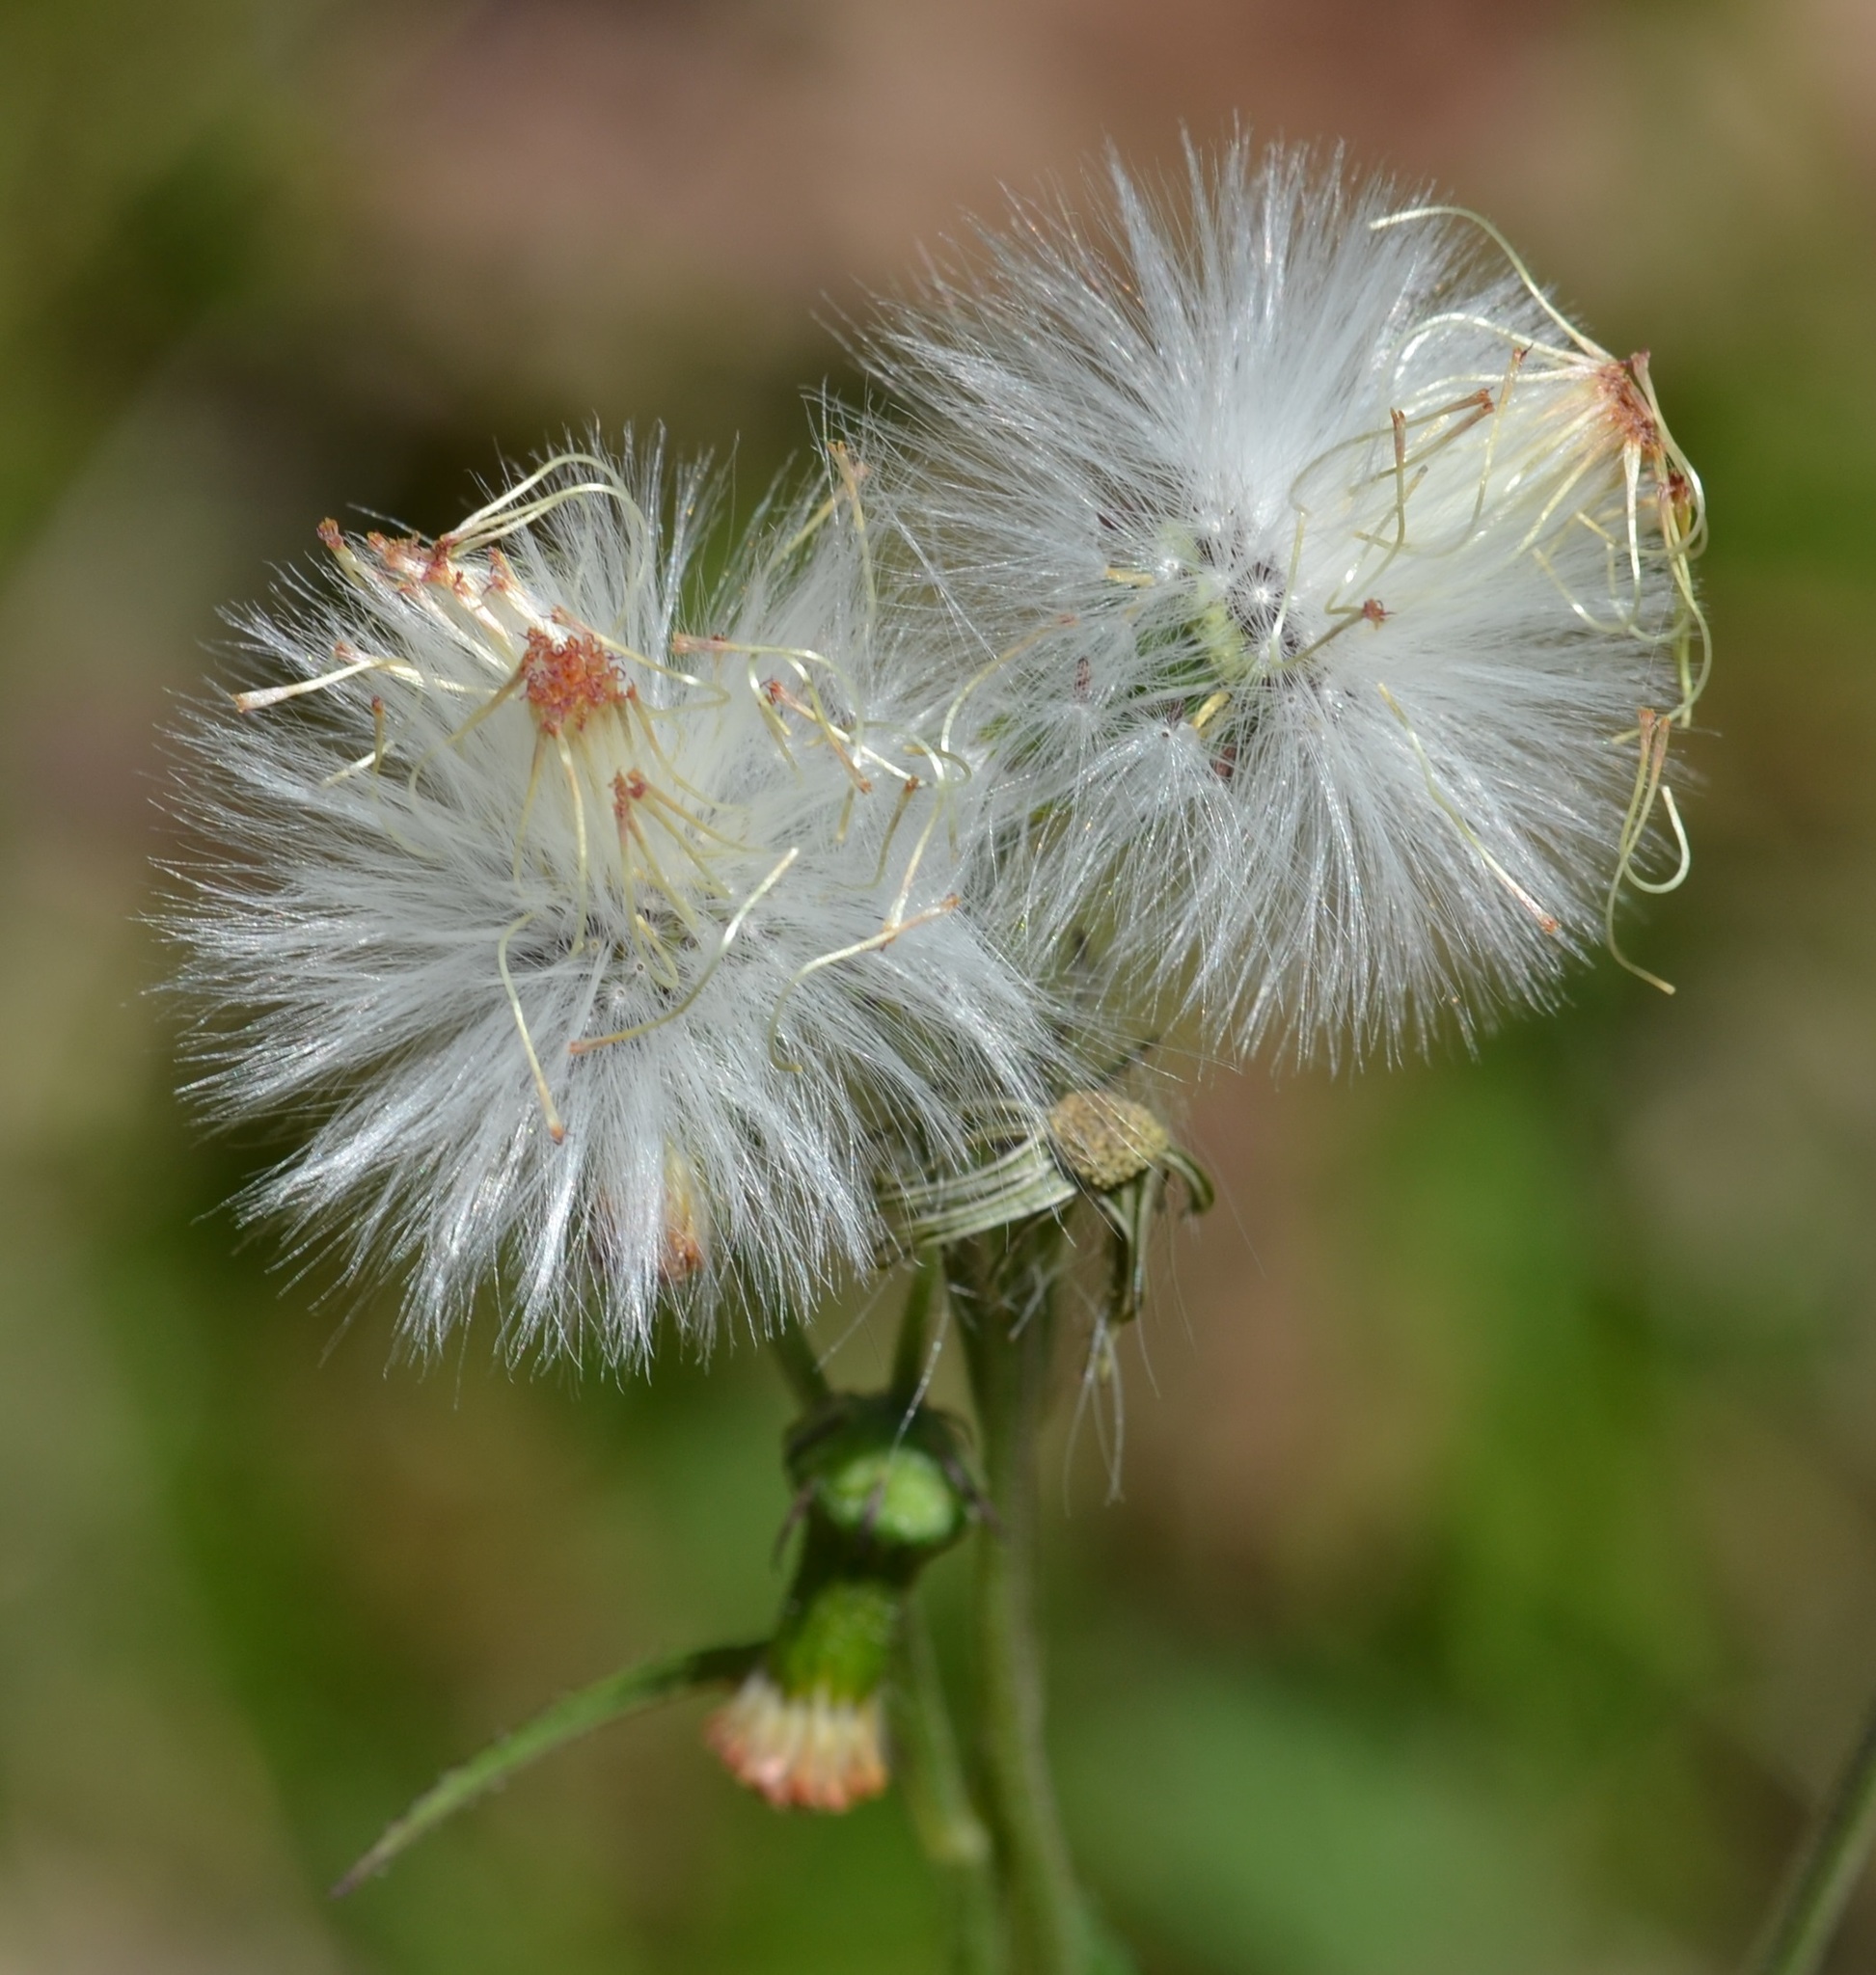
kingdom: Plantae
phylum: Tracheophyta
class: Magnoliopsida
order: Asterales
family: Asteraceae
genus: Crassocephalum
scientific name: Crassocephalum crepidioides
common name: Redflower ragleaf
